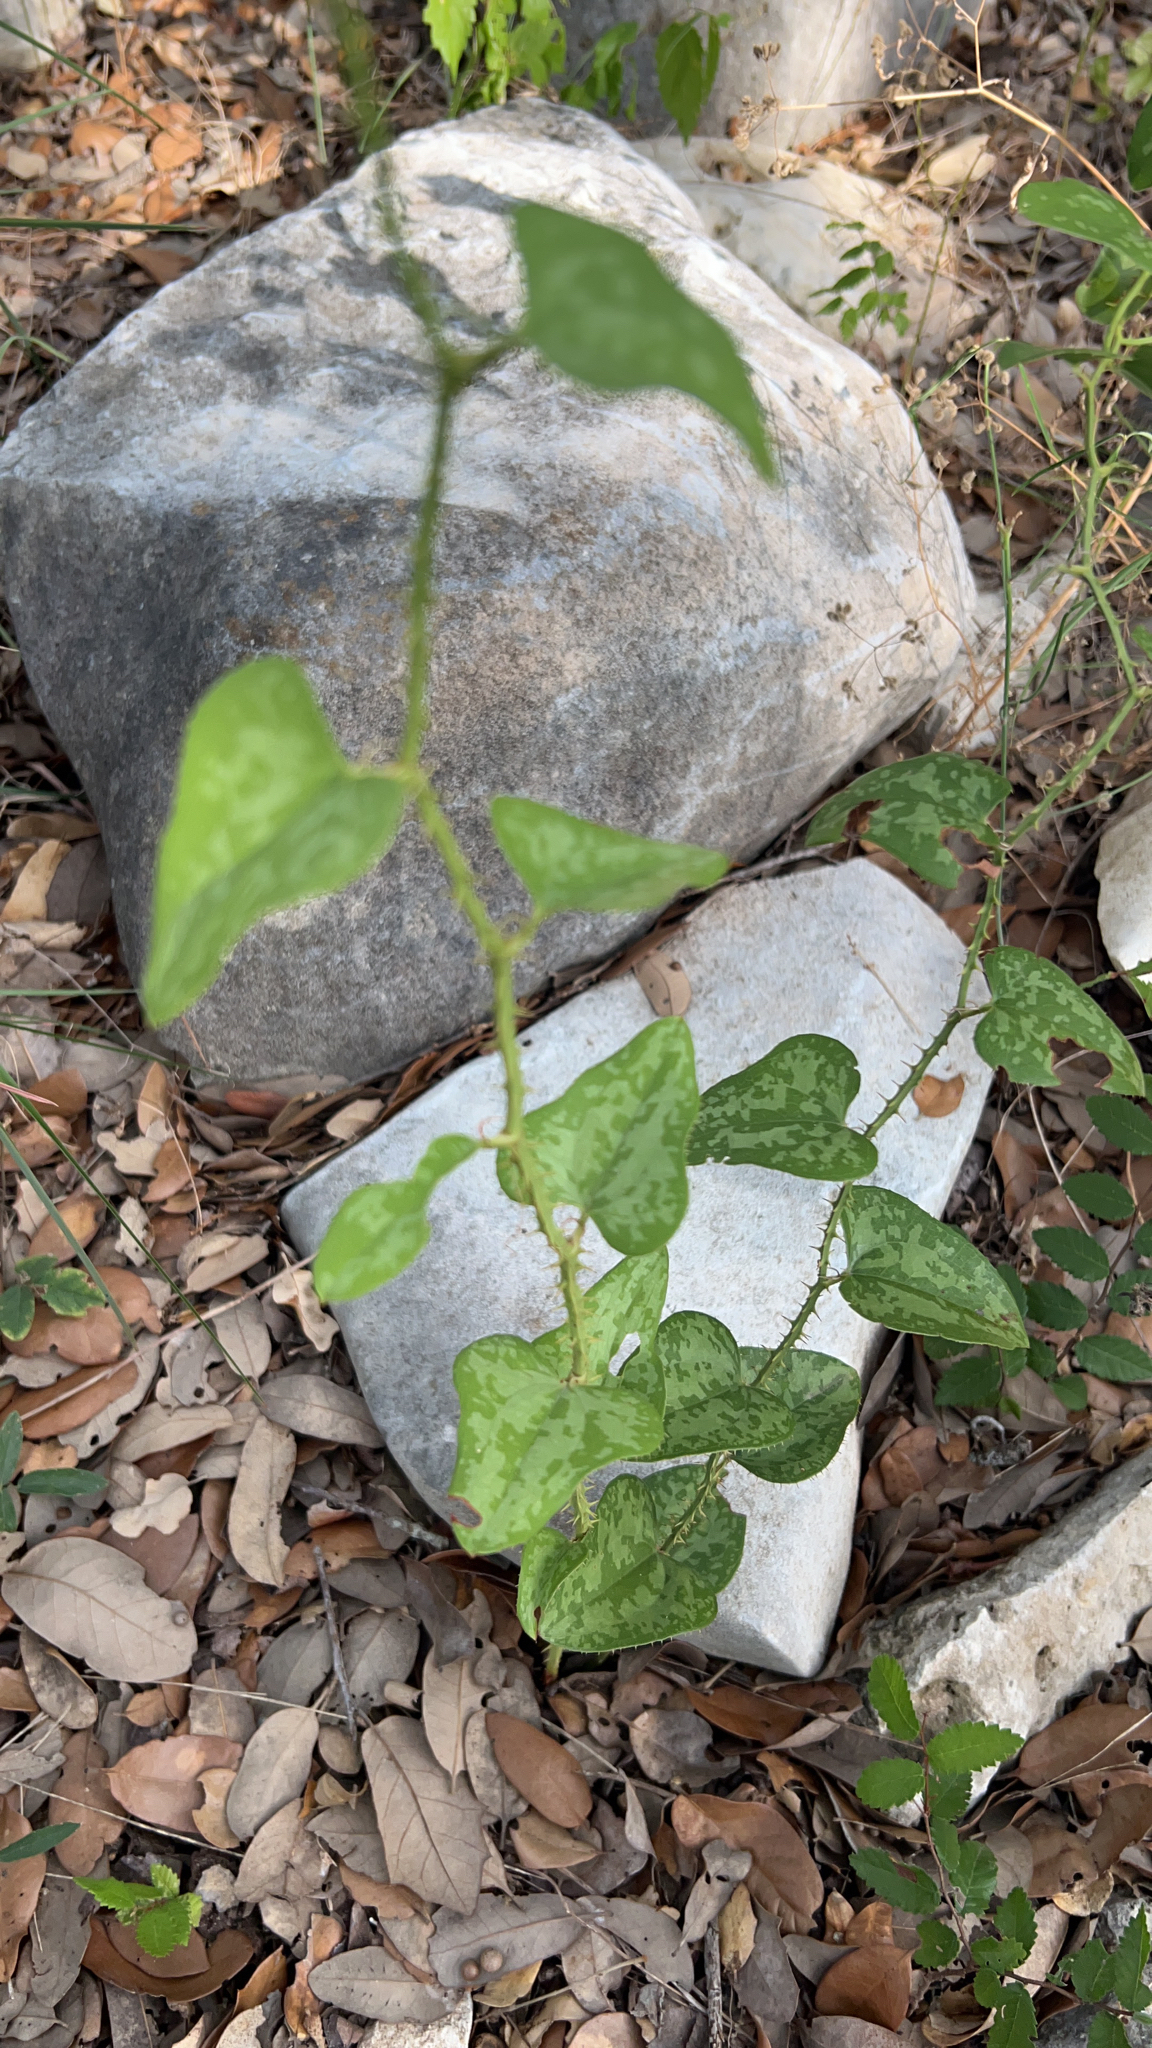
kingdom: Plantae
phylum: Tracheophyta
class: Liliopsida
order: Liliales
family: Smilacaceae
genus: Smilax
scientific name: Smilax bona-nox
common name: Catbrier
